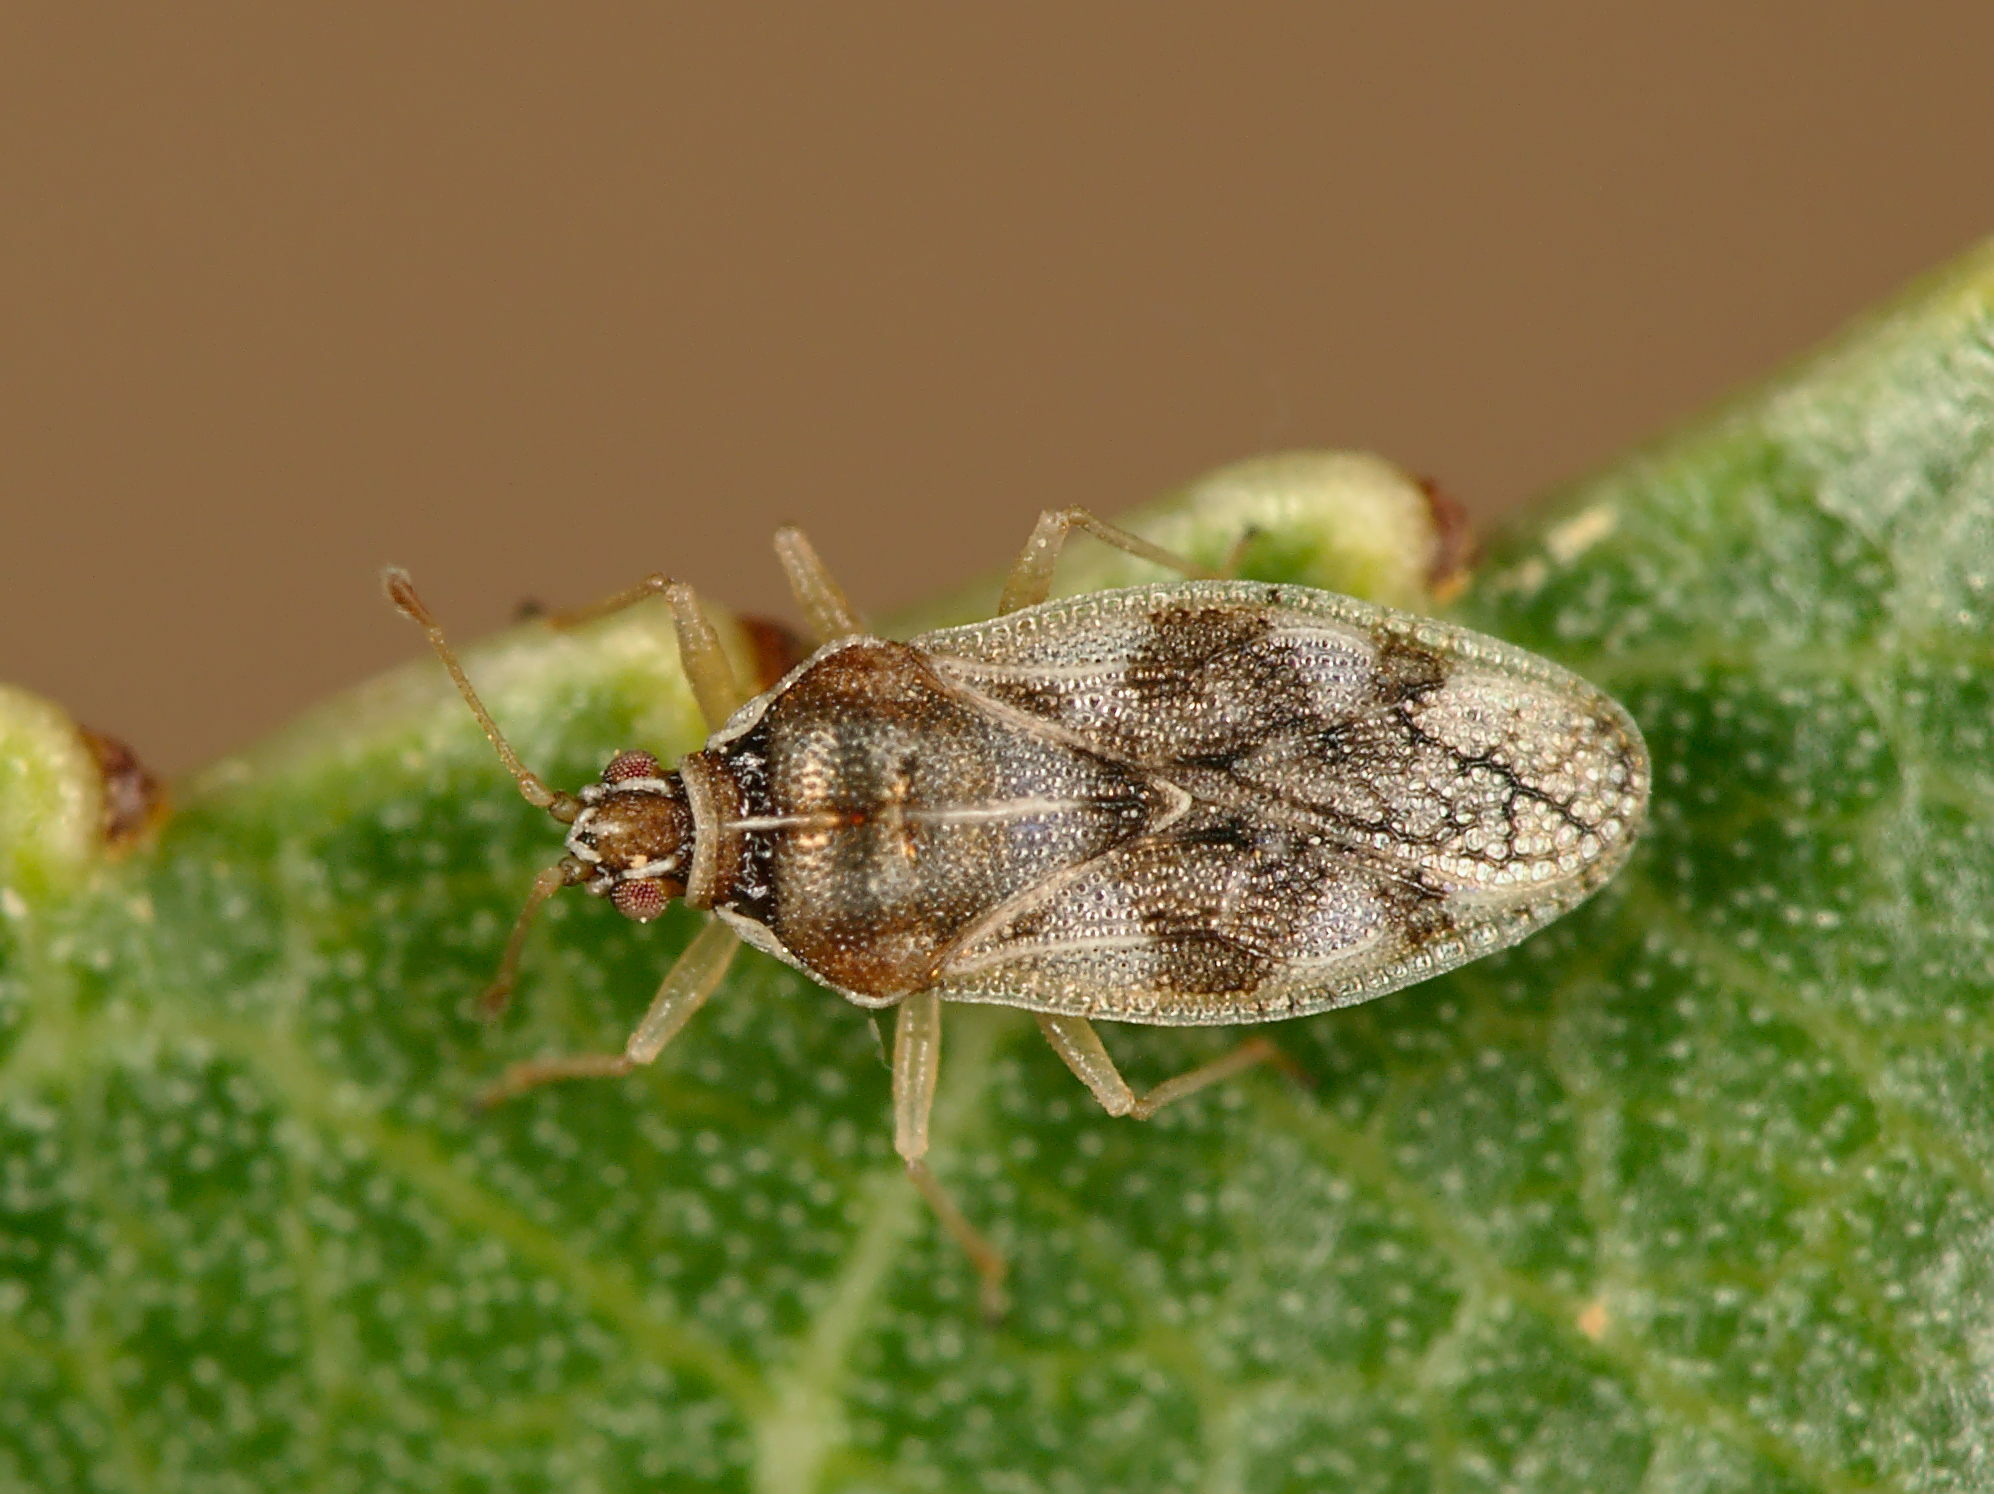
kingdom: Animalia
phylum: Arthropoda
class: Insecta
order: Hemiptera
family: Tingidae
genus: Monosteira
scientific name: Monosteira unicostata
